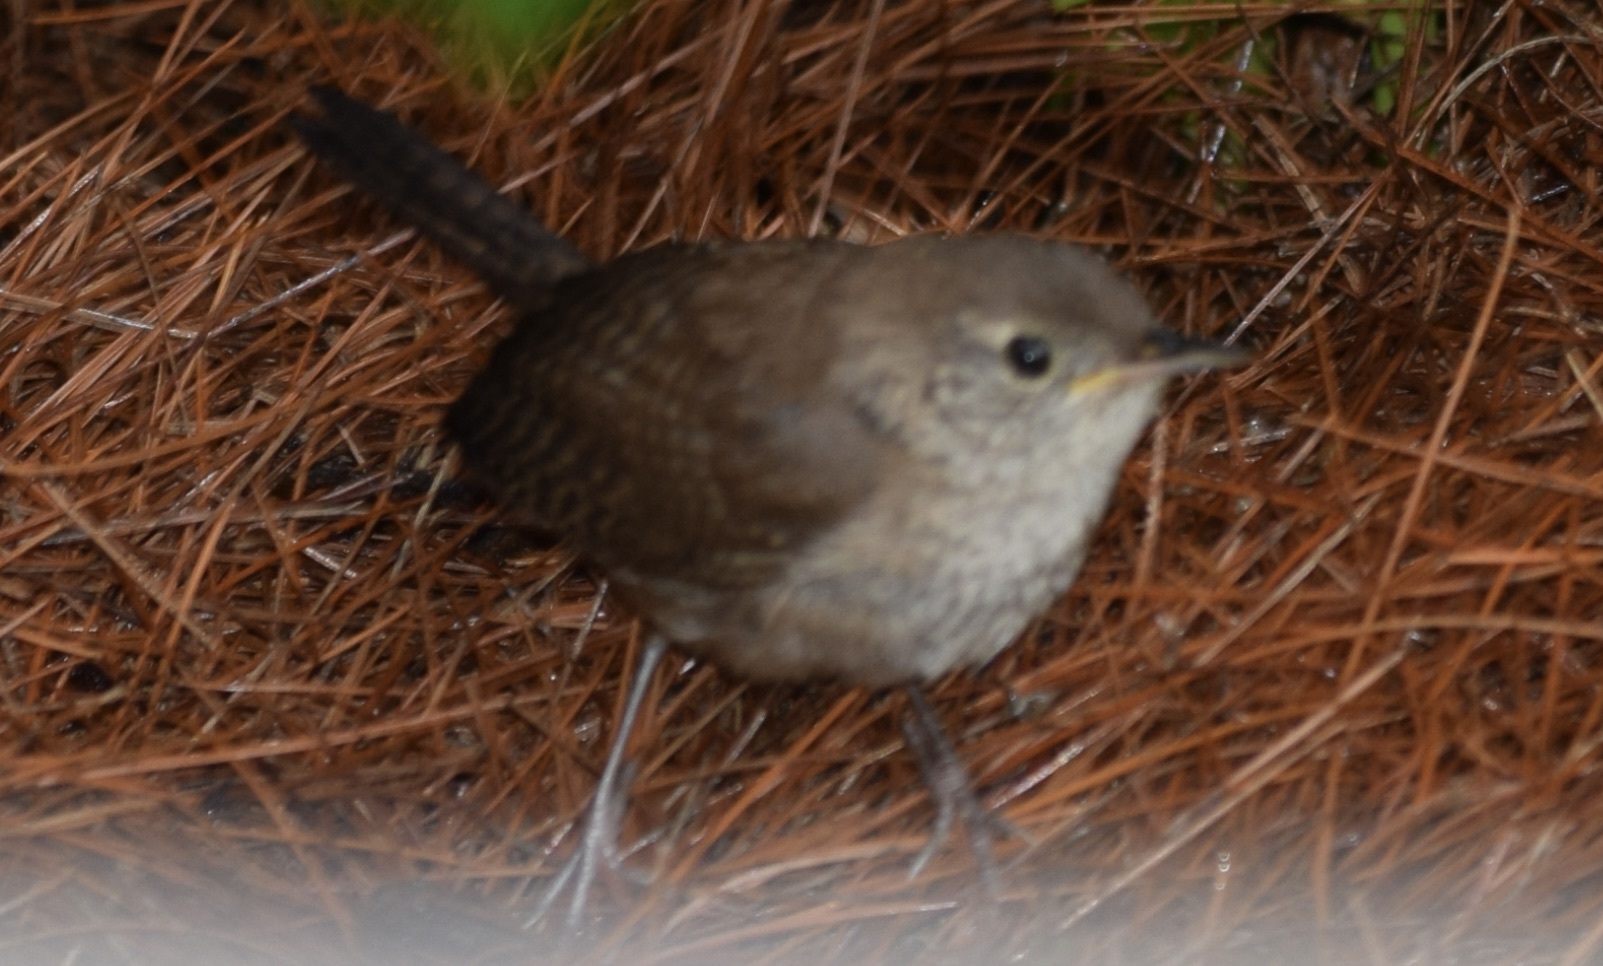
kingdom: Animalia
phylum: Chordata
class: Aves
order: Passeriformes
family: Troglodytidae
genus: Troglodytes
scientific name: Troglodytes aedon
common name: House wren
